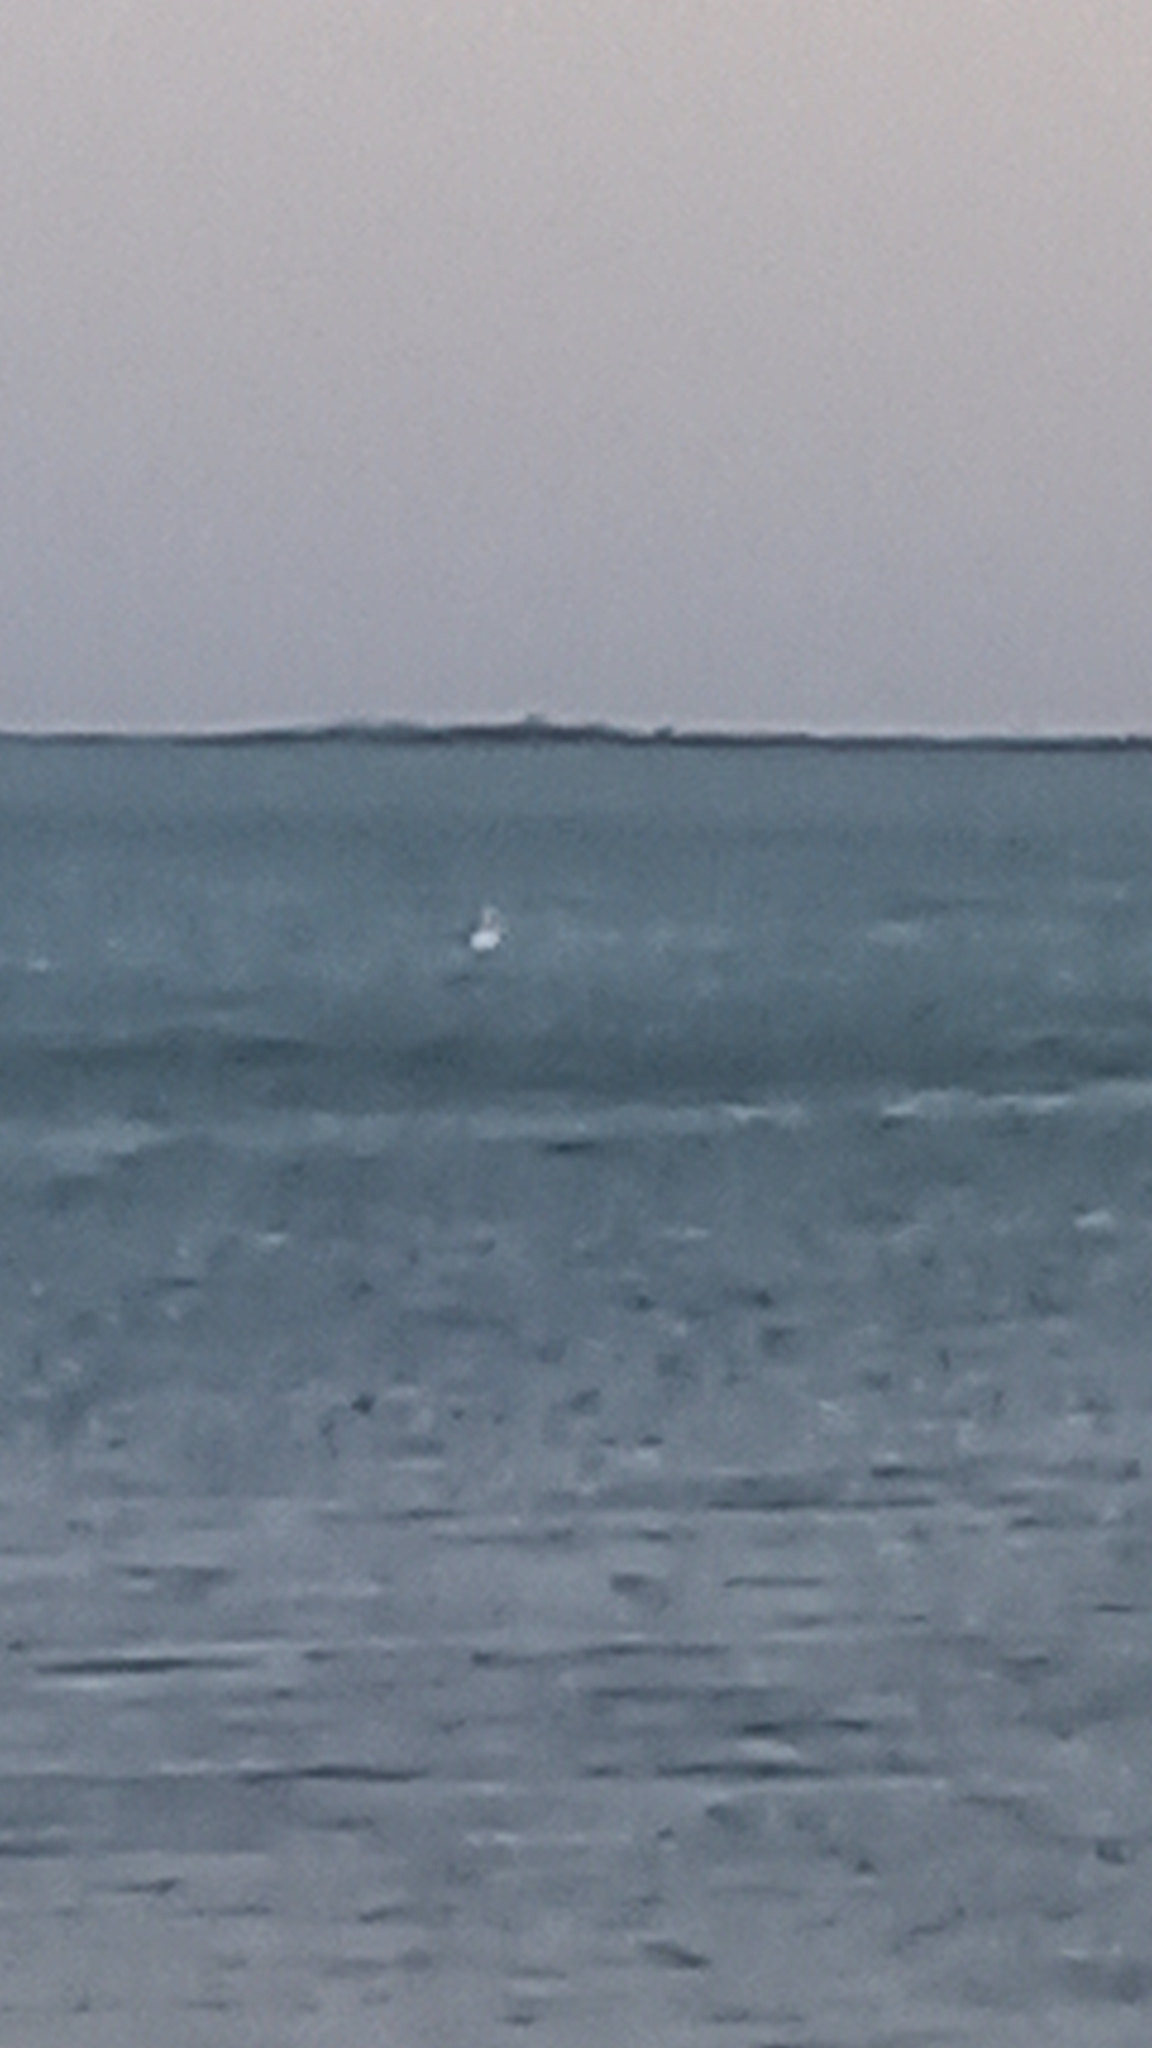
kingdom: Animalia
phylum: Chordata
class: Aves
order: Phoenicopteriformes
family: Phoenicopteridae
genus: Phoenicopterus
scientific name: Phoenicopterus roseus
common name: Greater flamingo
